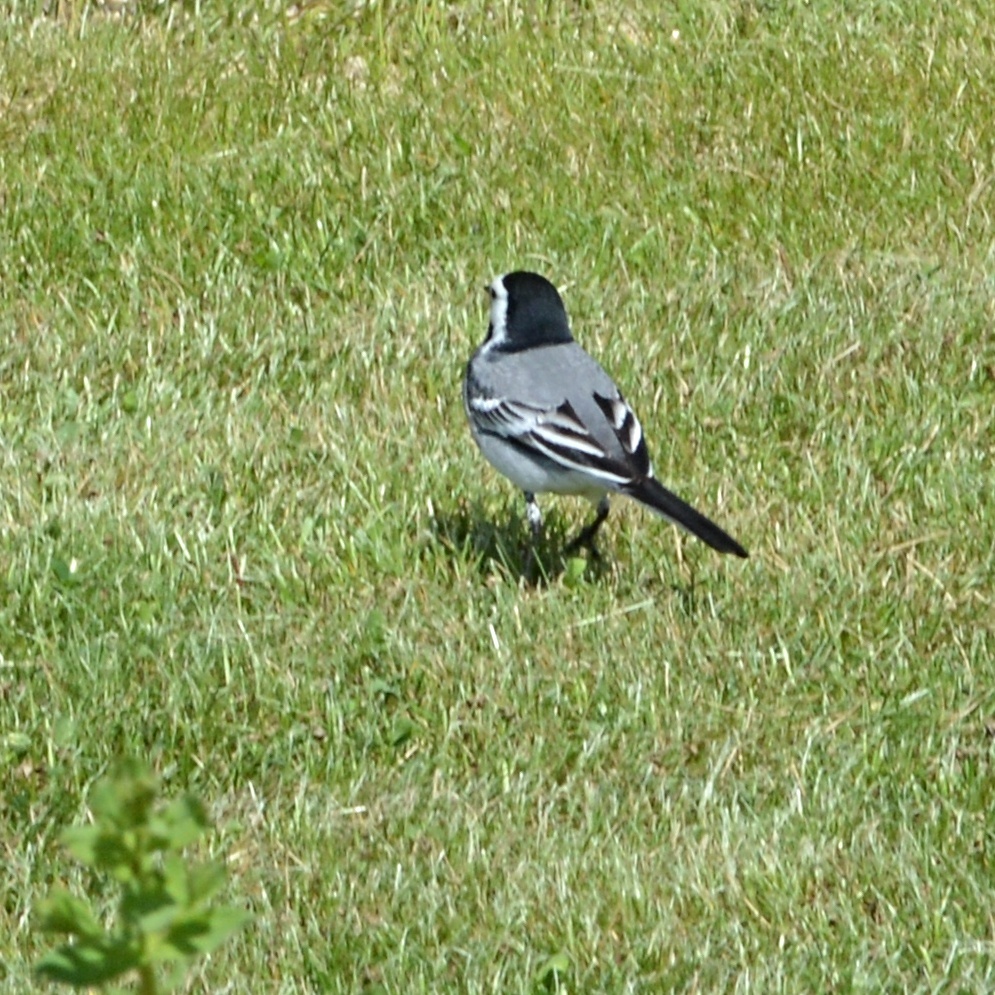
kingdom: Animalia
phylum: Chordata
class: Aves
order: Passeriformes
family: Motacillidae
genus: Motacilla
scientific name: Motacilla alba
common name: White wagtail
